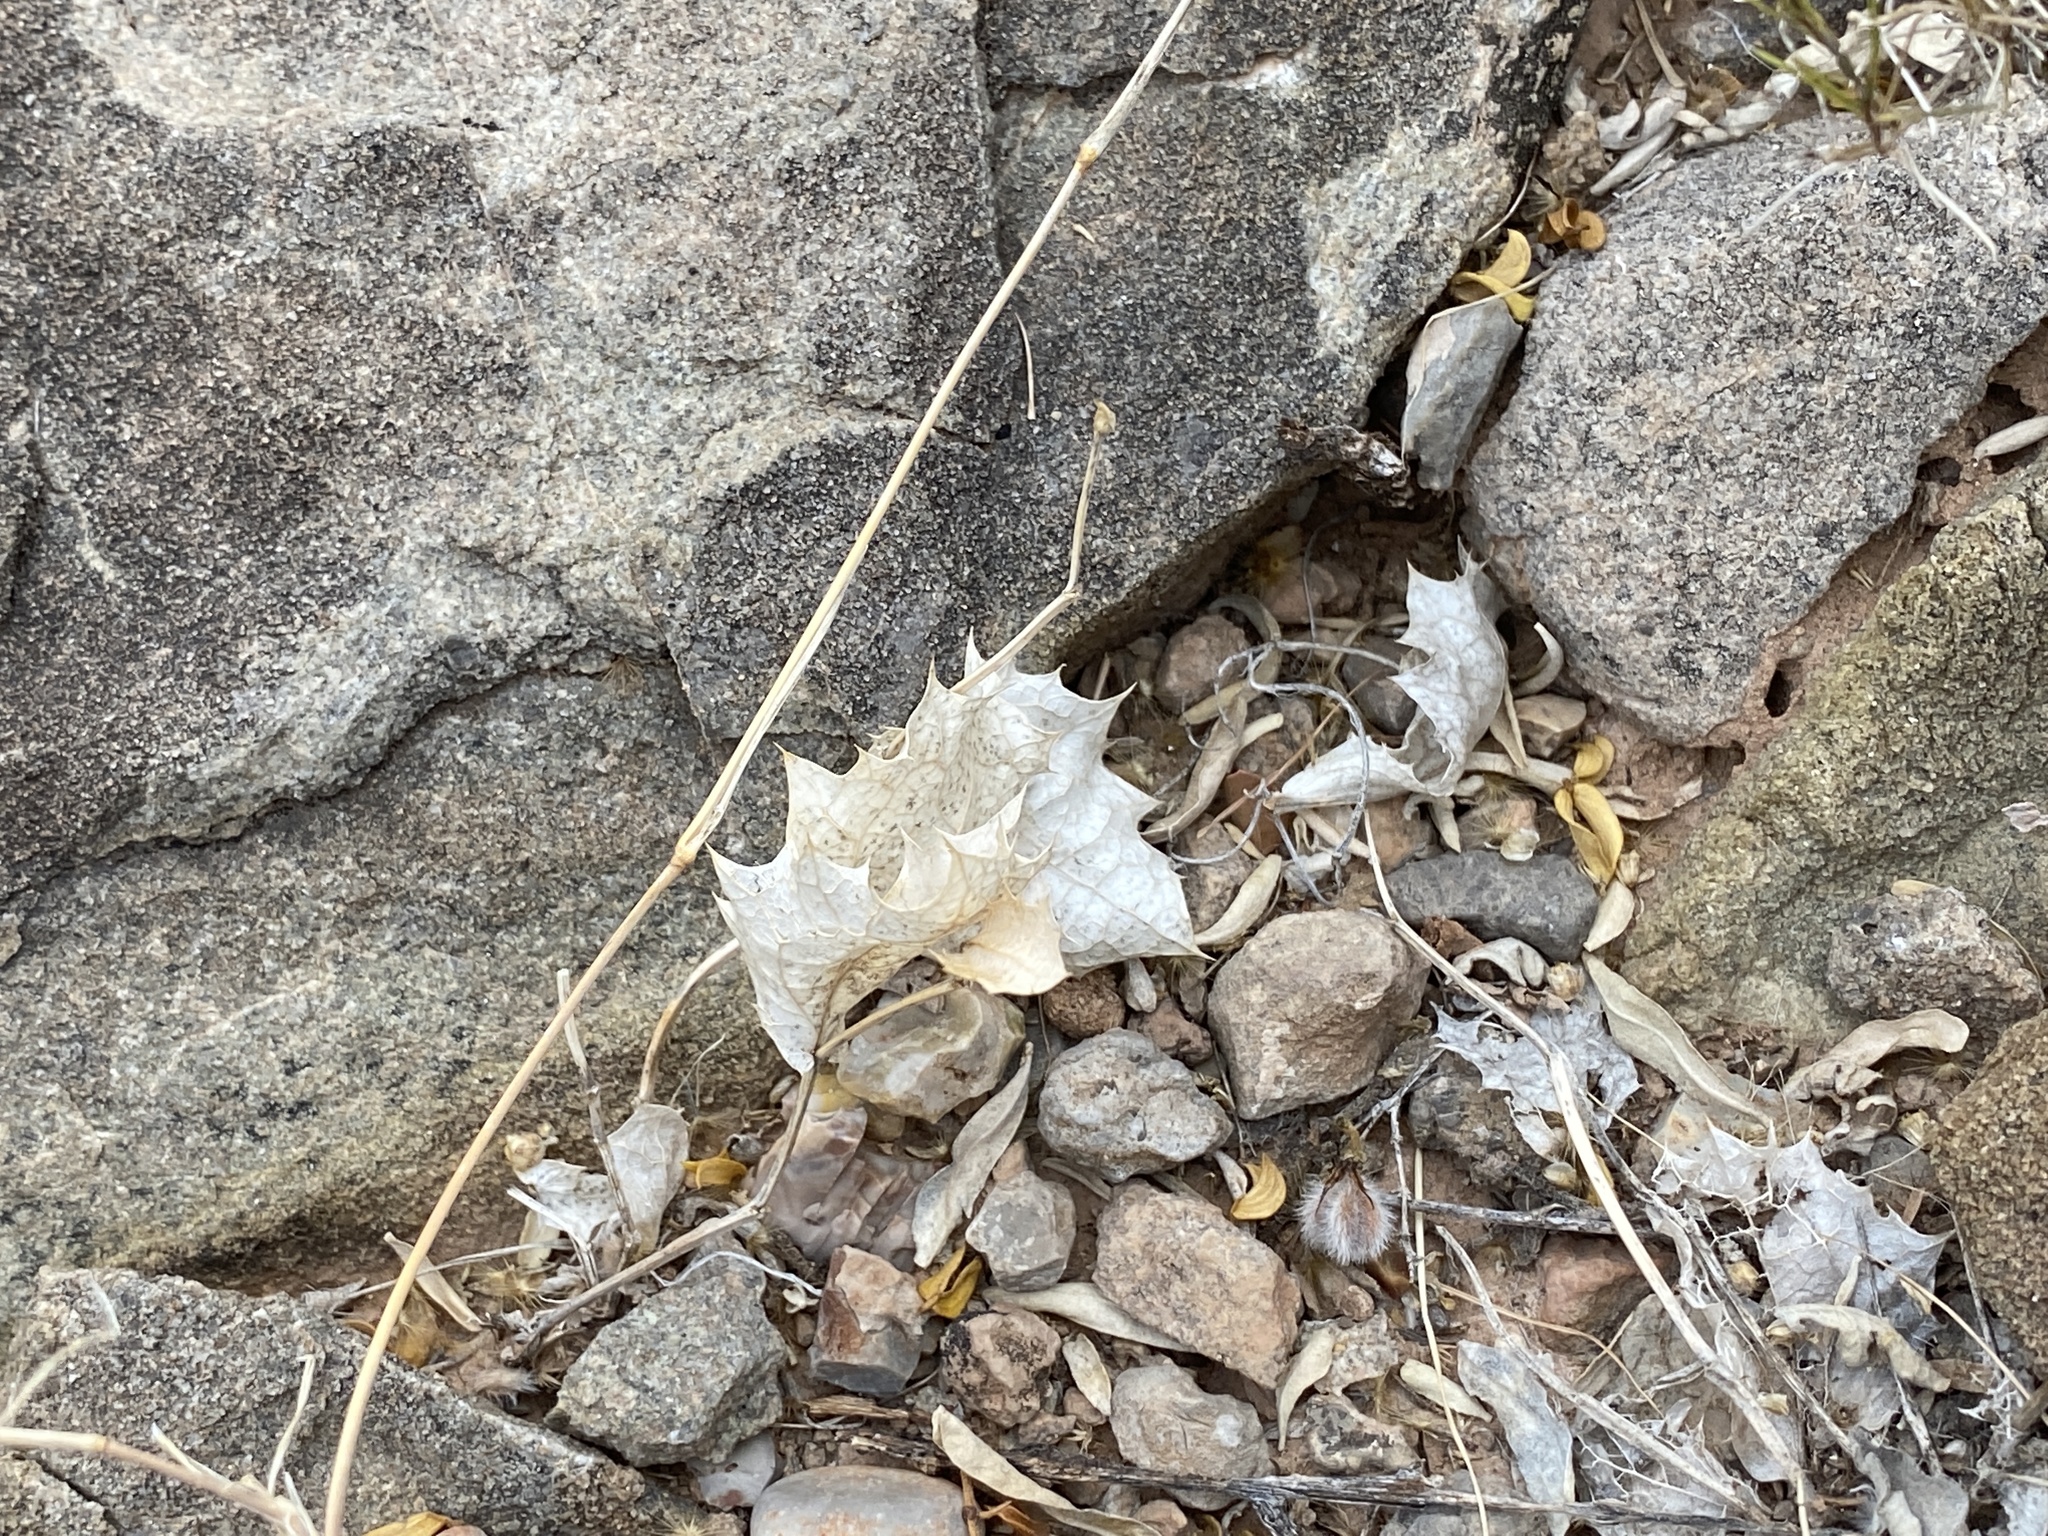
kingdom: Plantae
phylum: Tracheophyta
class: Magnoliopsida
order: Asterales
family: Asteraceae
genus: Acourtia
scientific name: Acourtia nana
